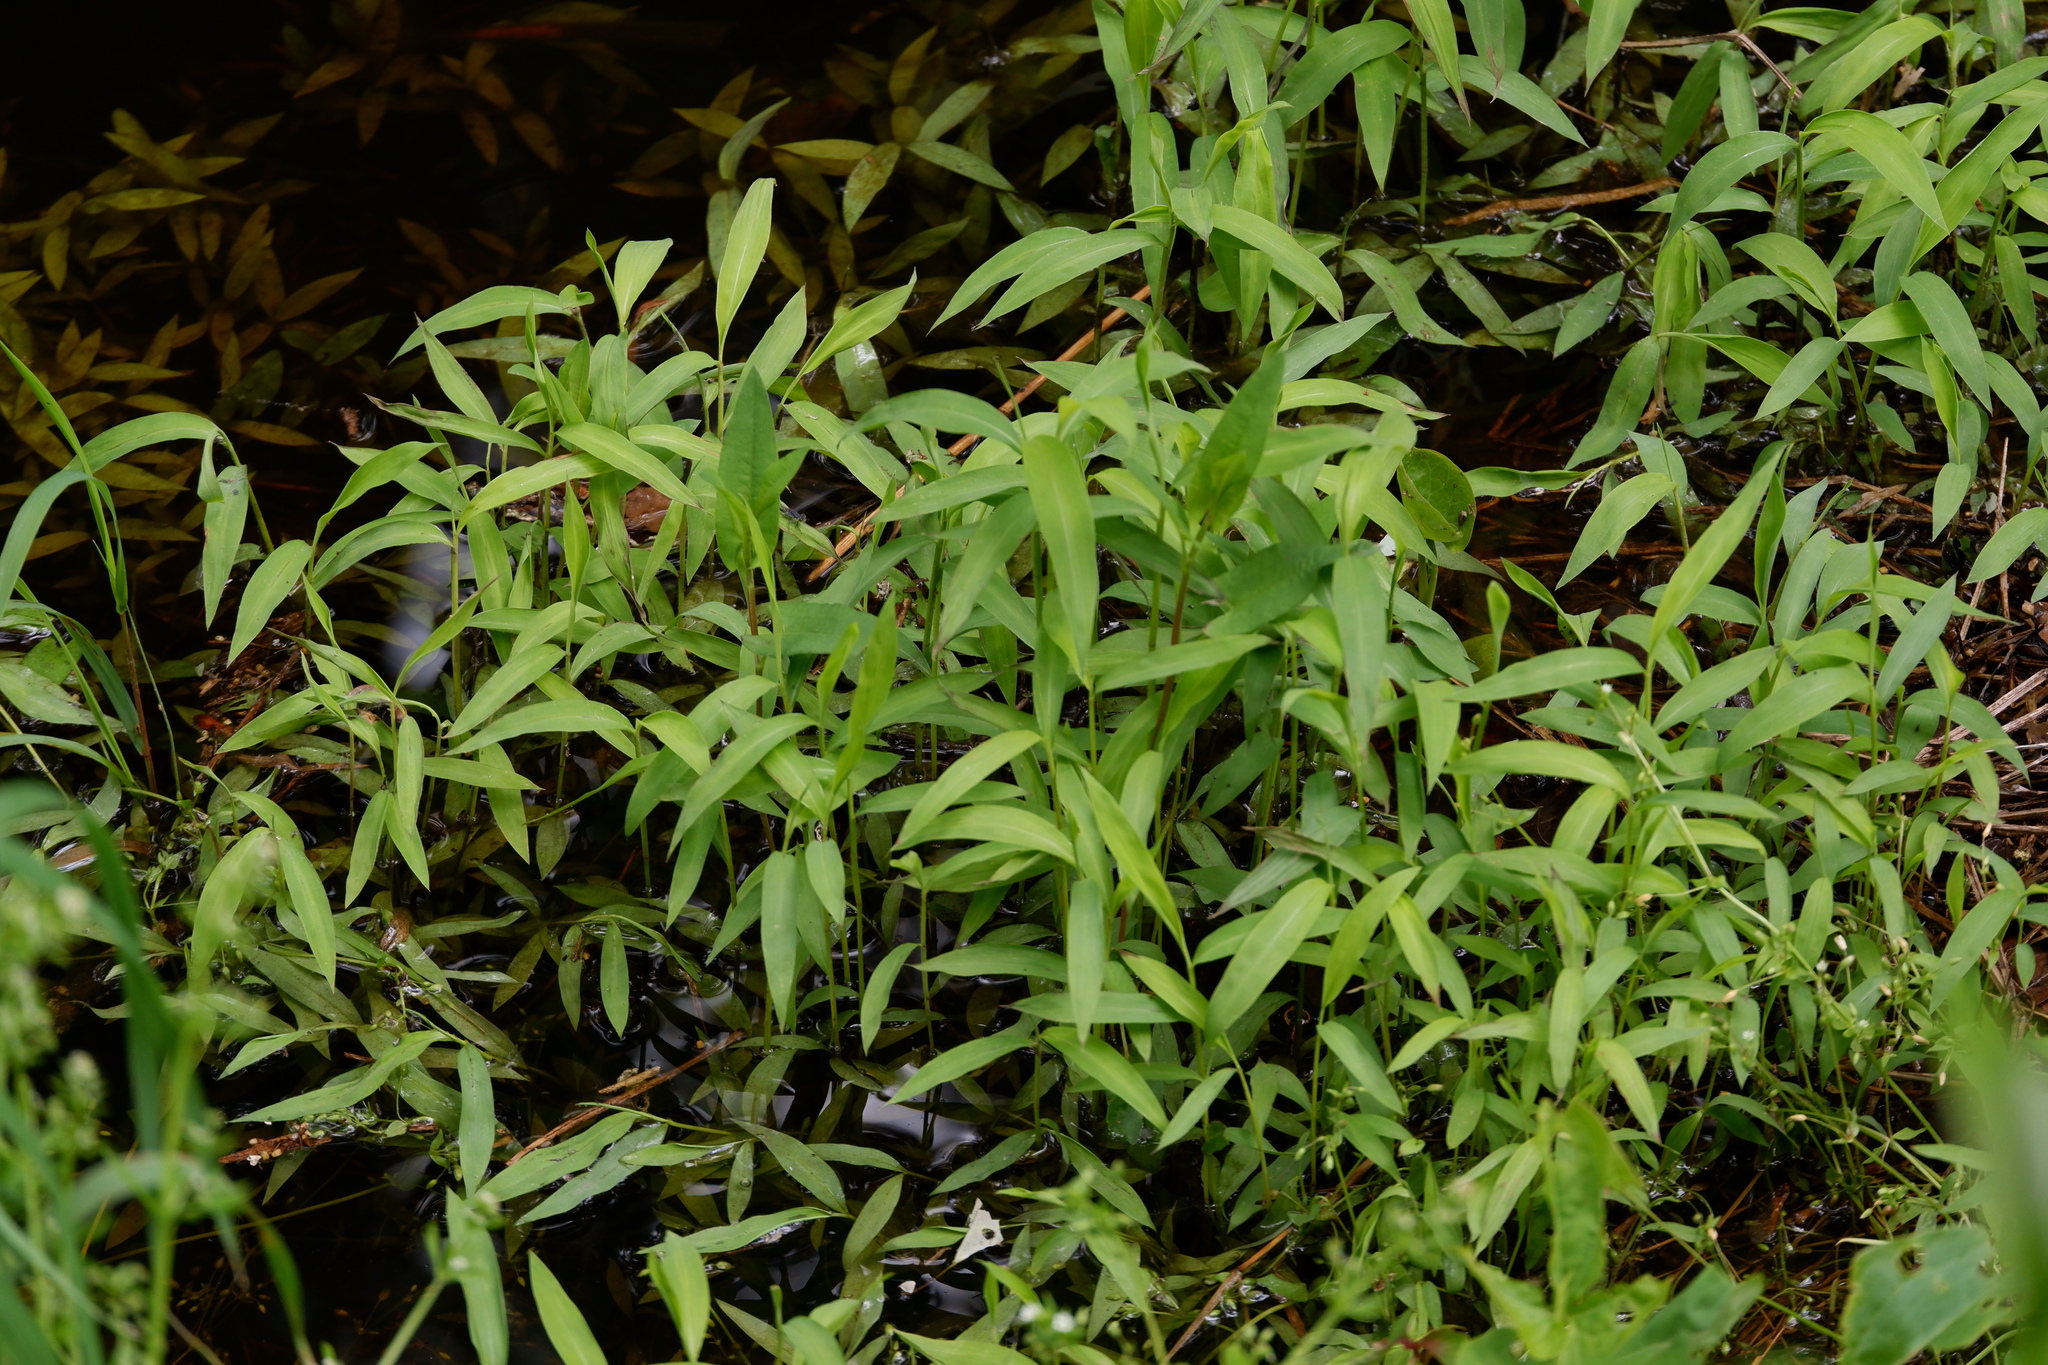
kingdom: Plantae
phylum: Tracheophyta
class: Liliopsida
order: Poales
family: Poaceae
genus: Microstegium
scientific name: Microstegium vimineum
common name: Japanese stiltgrass
